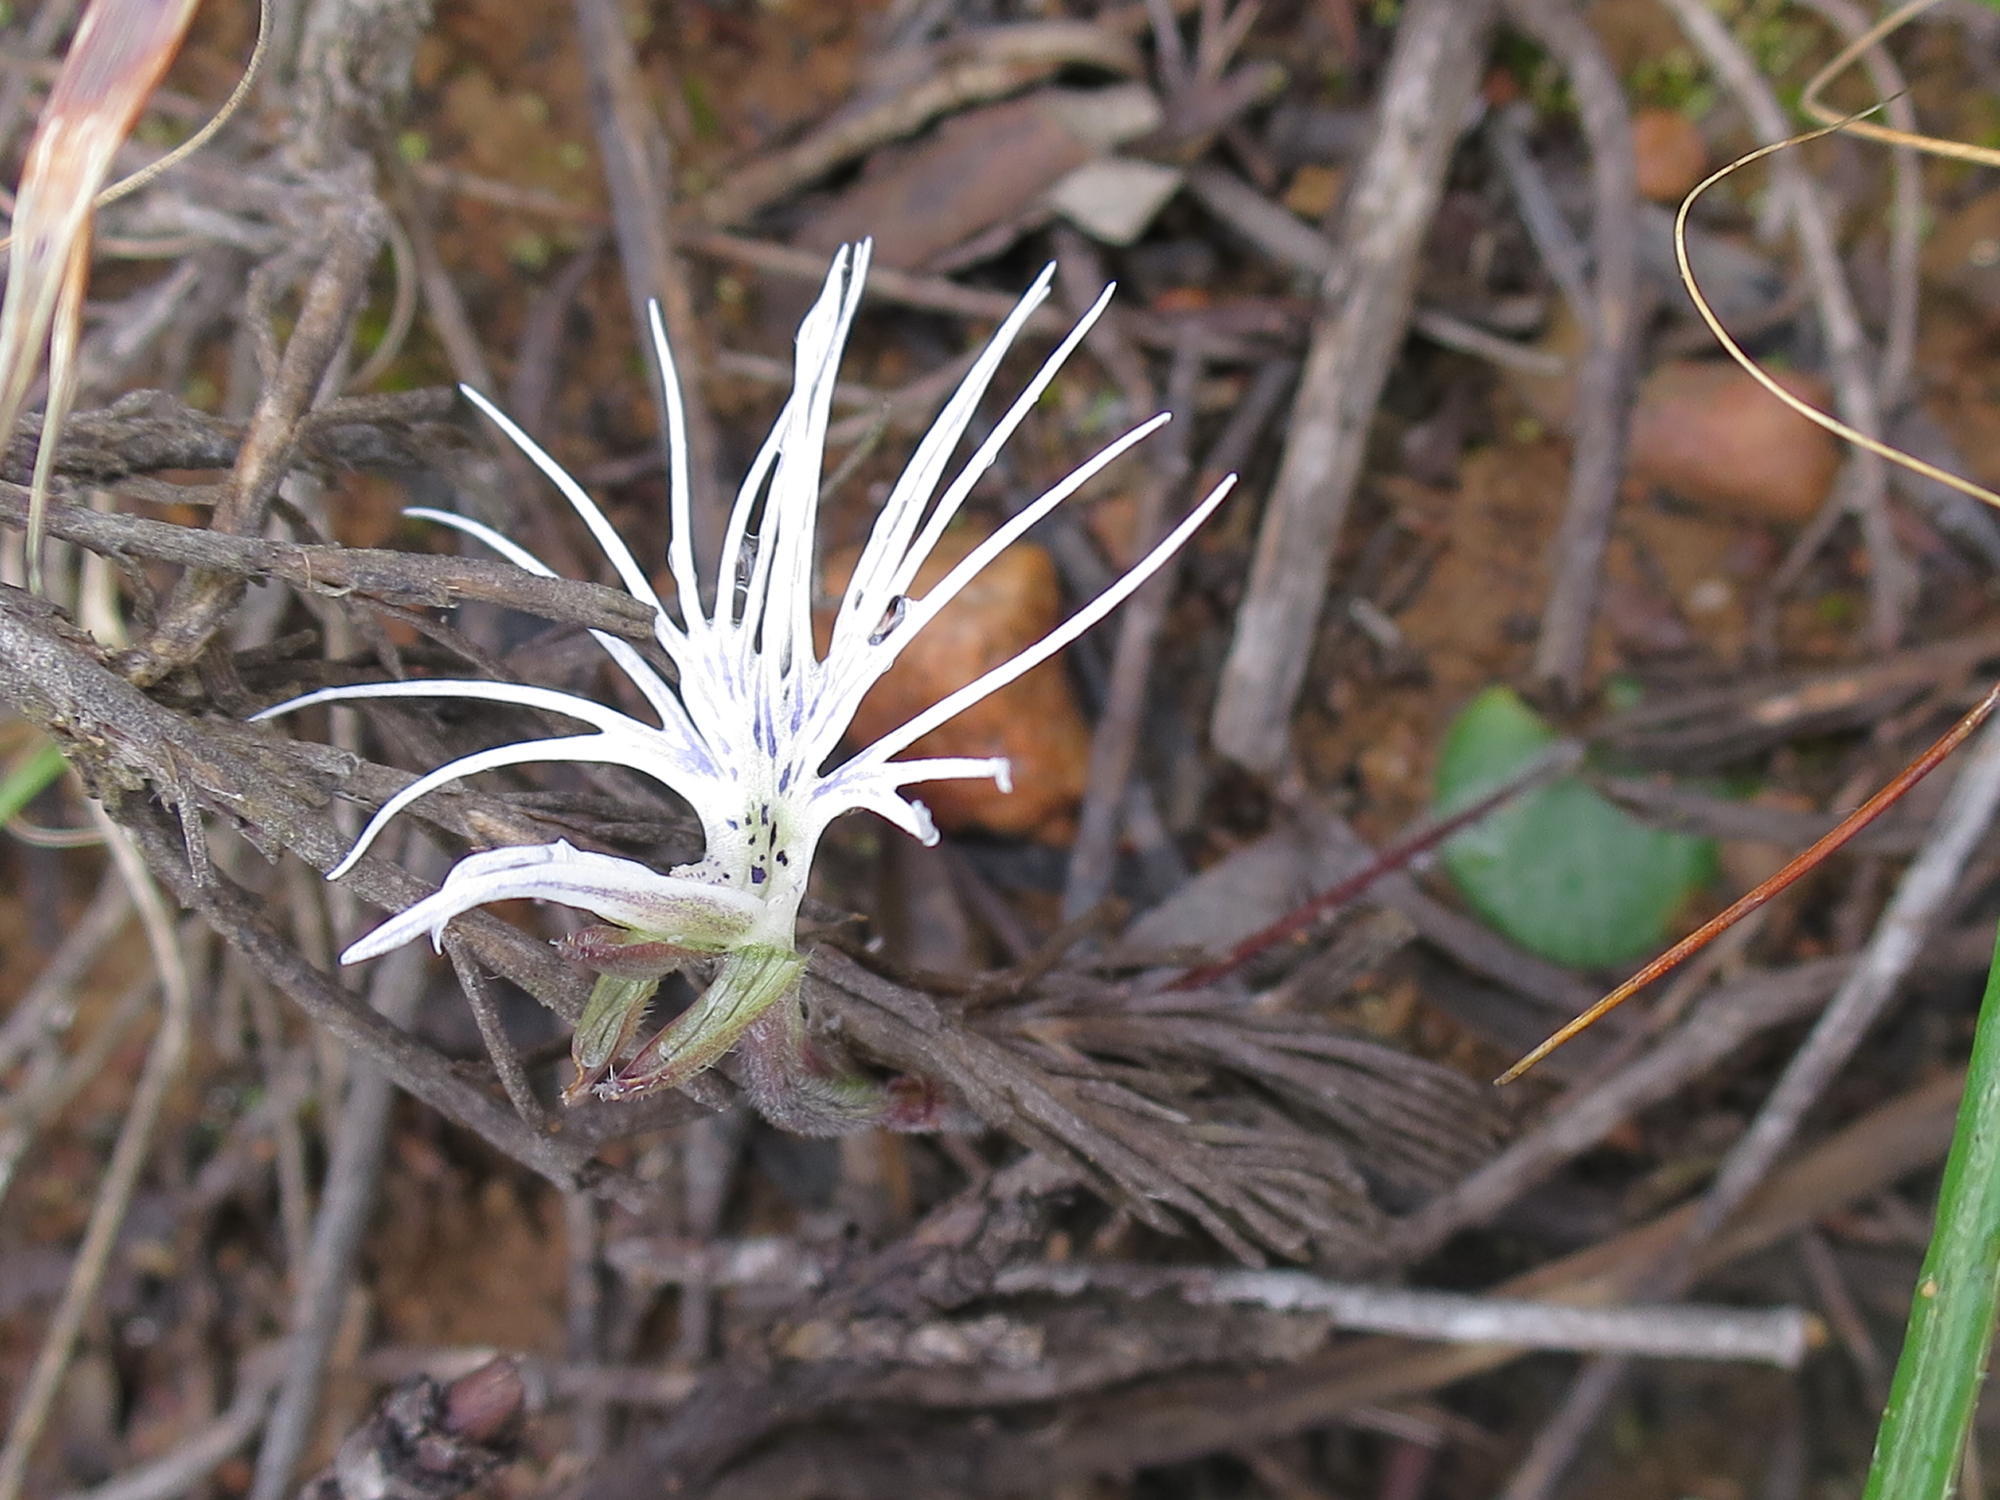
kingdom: Plantae
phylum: Tracheophyta
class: Liliopsida
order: Asparagales
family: Orchidaceae
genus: Holothrix
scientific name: Holothrix burmanniana
